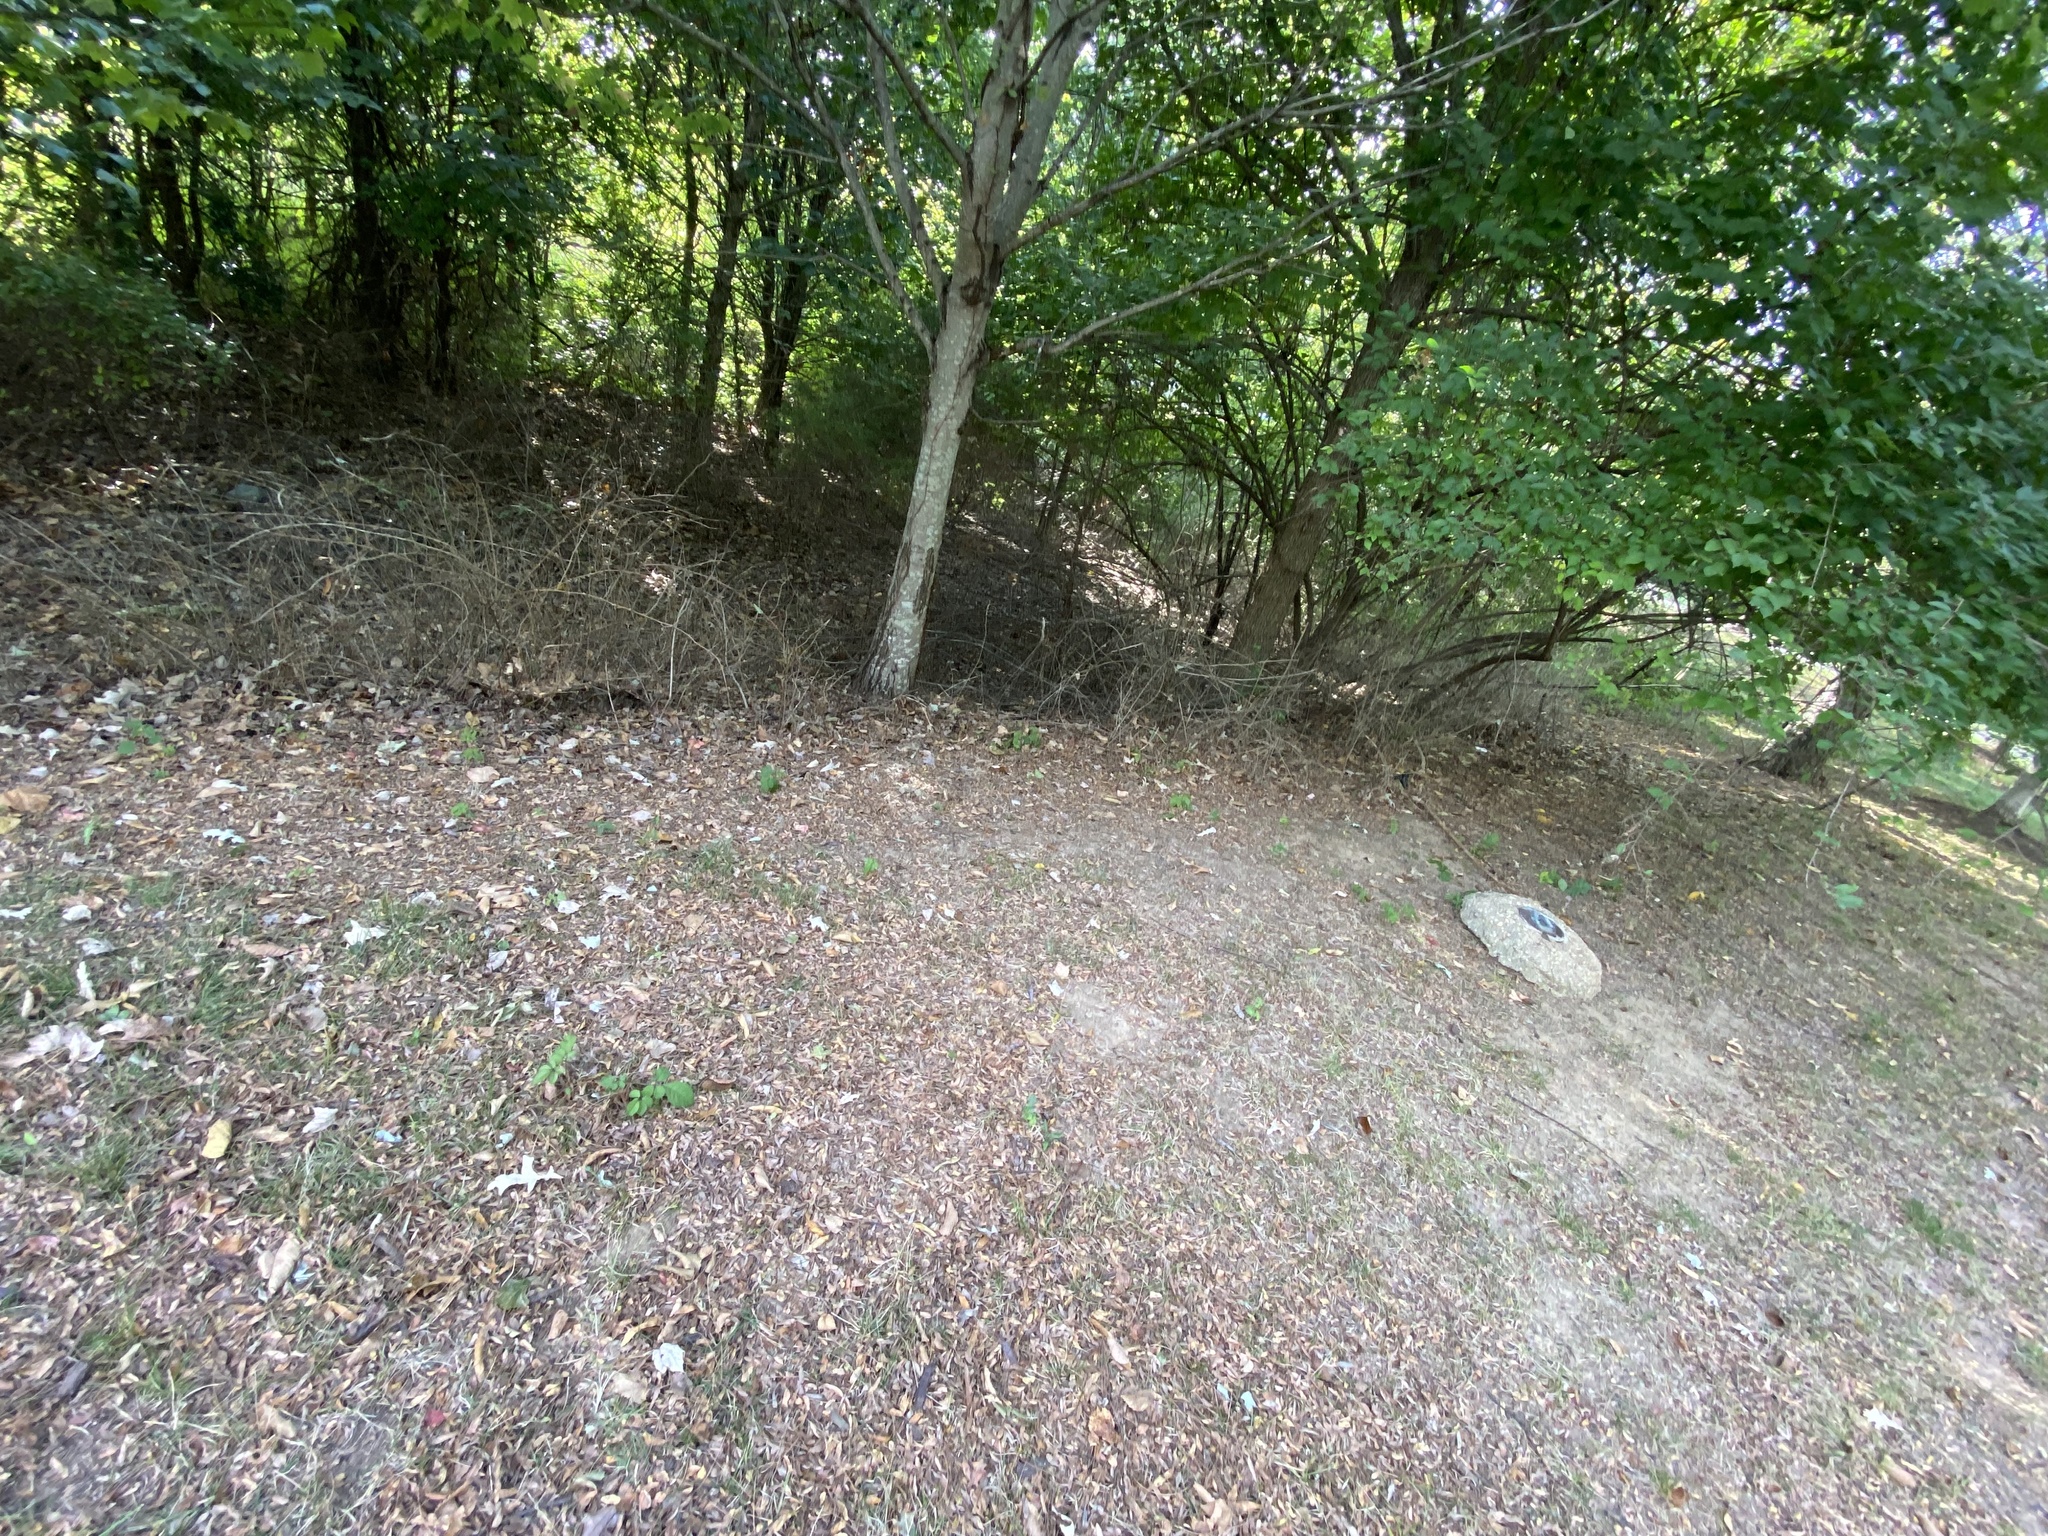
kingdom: Plantae
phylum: Tracheophyta
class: Magnoliopsida
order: Vitales
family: Vitaceae
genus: Causonis
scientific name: Causonis japonica
